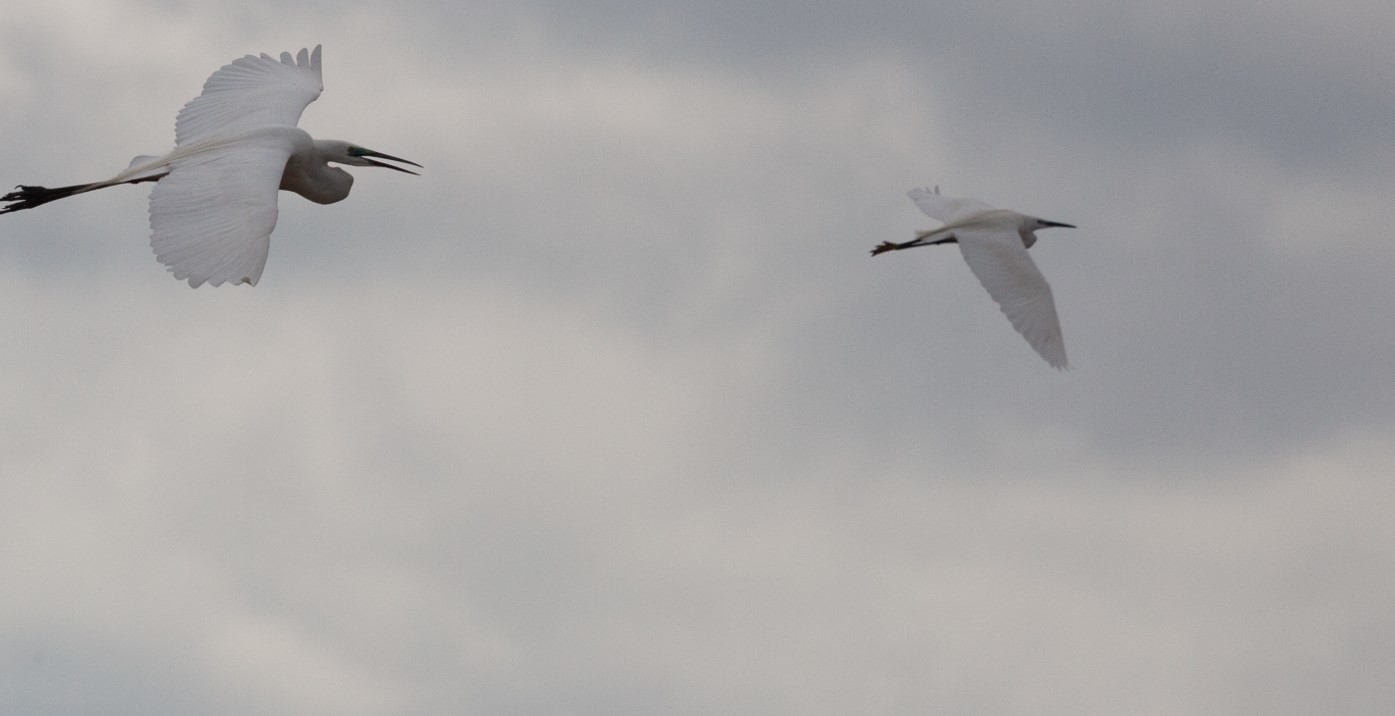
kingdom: Animalia
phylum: Chordata
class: Aves
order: Pelecaniformes
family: Ardeidae
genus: Egretta
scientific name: Egretta garzetta
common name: Little egret
